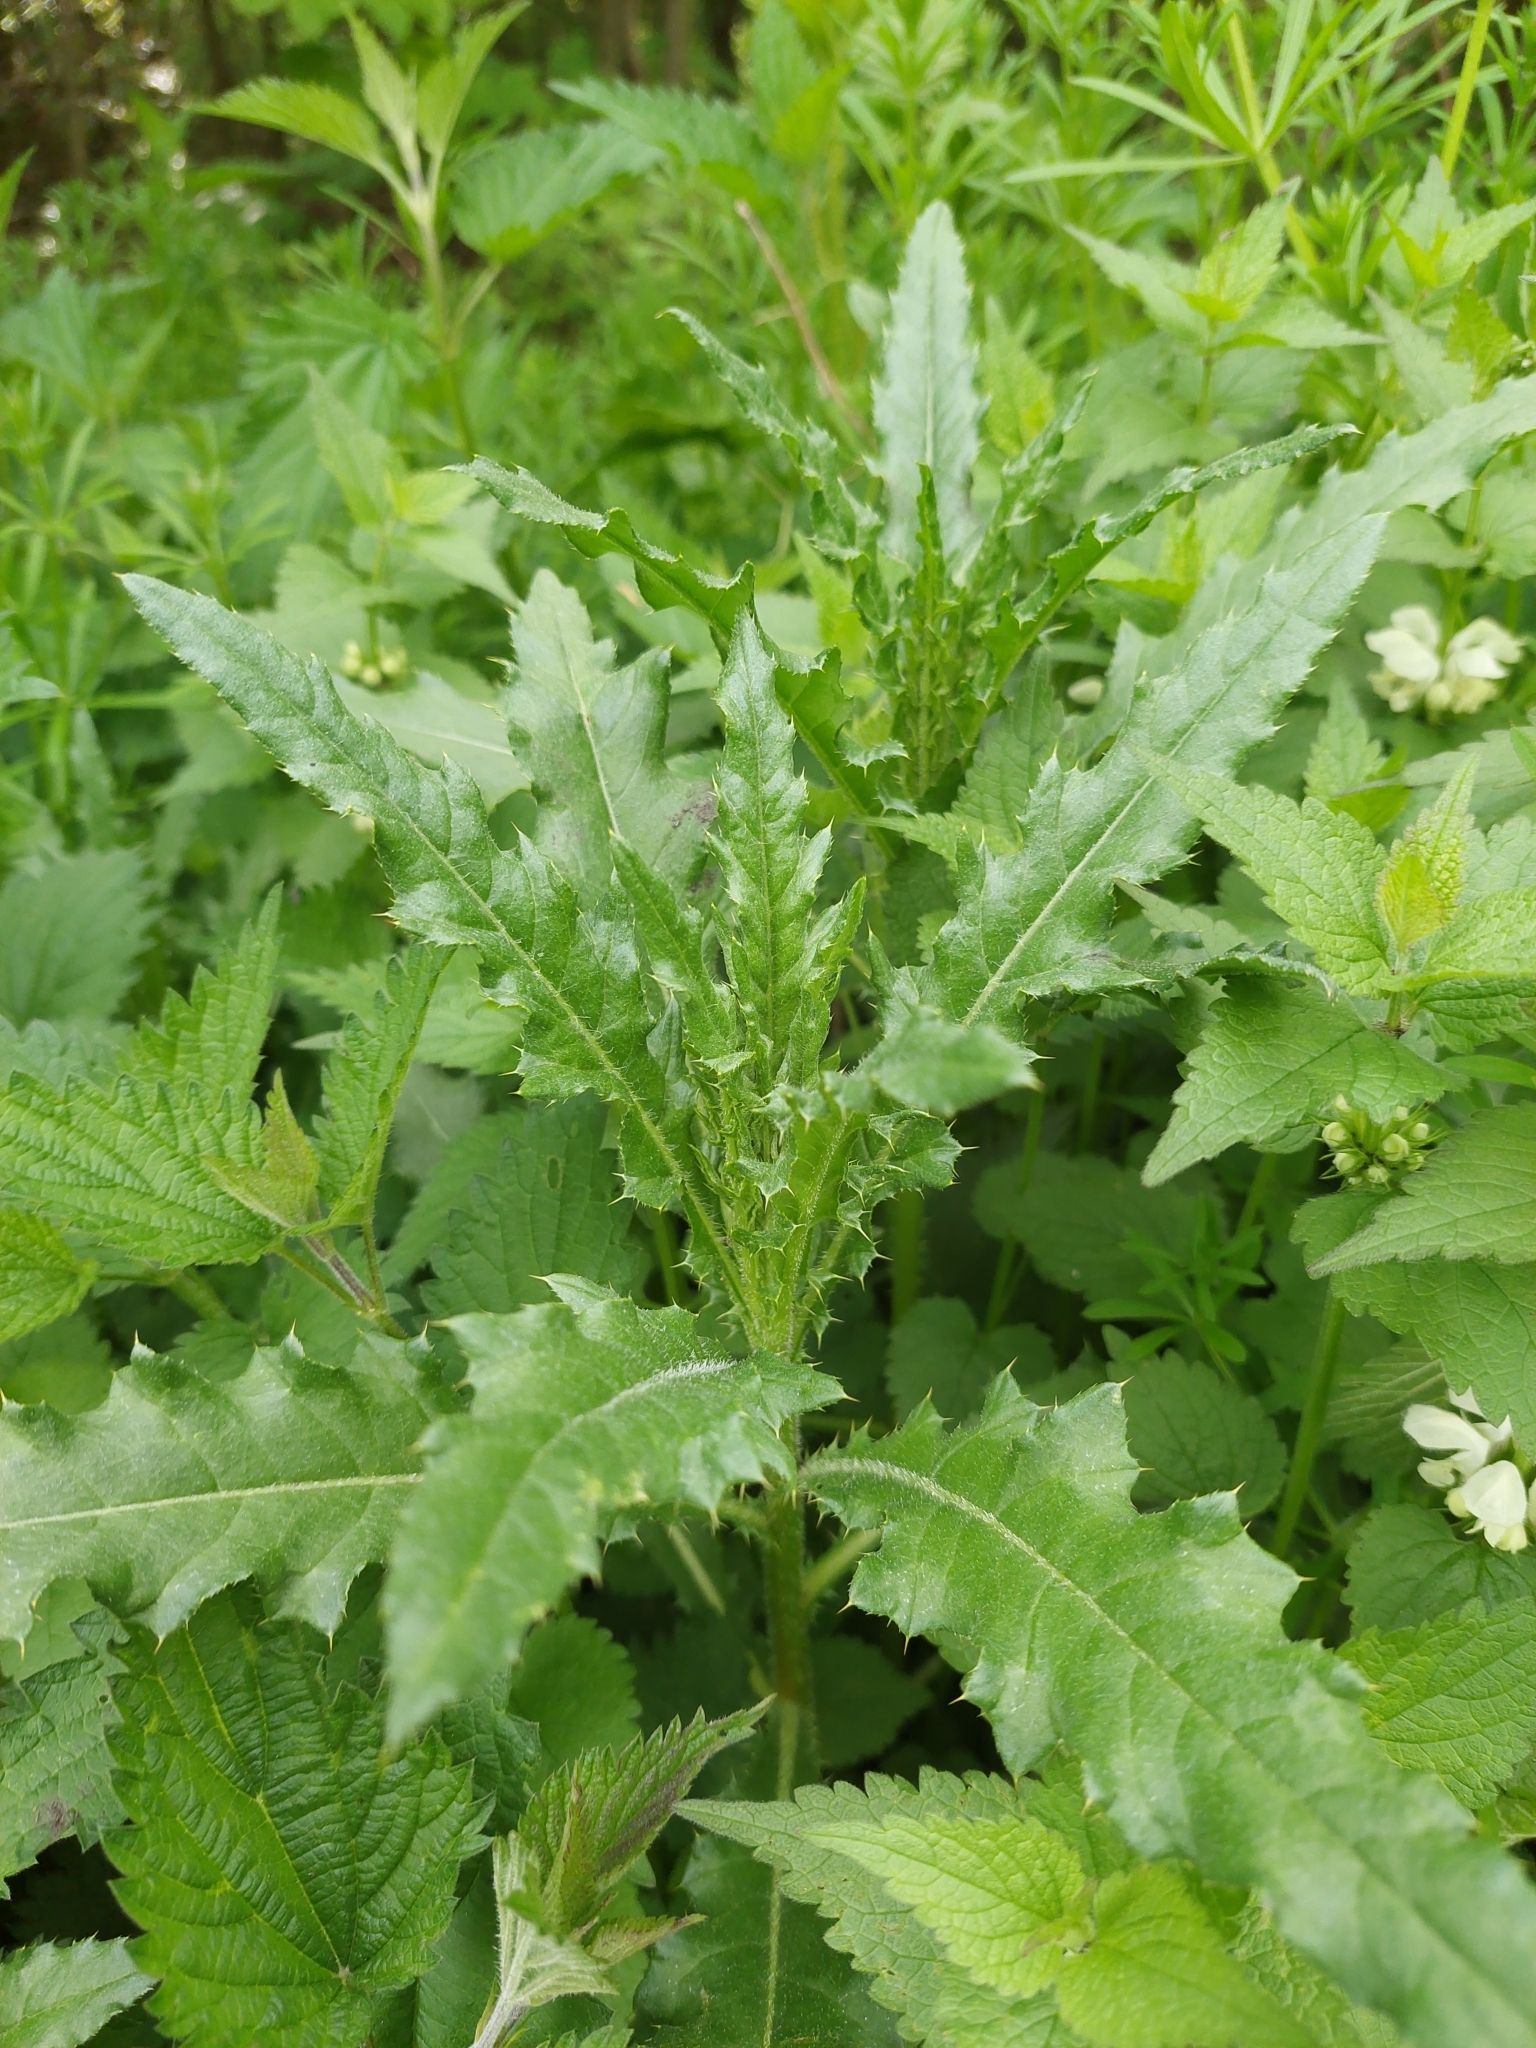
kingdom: Plantae
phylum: Tracheophyta
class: Magnoliopsida
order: Asterales
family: Asteraceae
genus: Cirsium
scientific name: Cirsium arvense
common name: Creeping thistle
